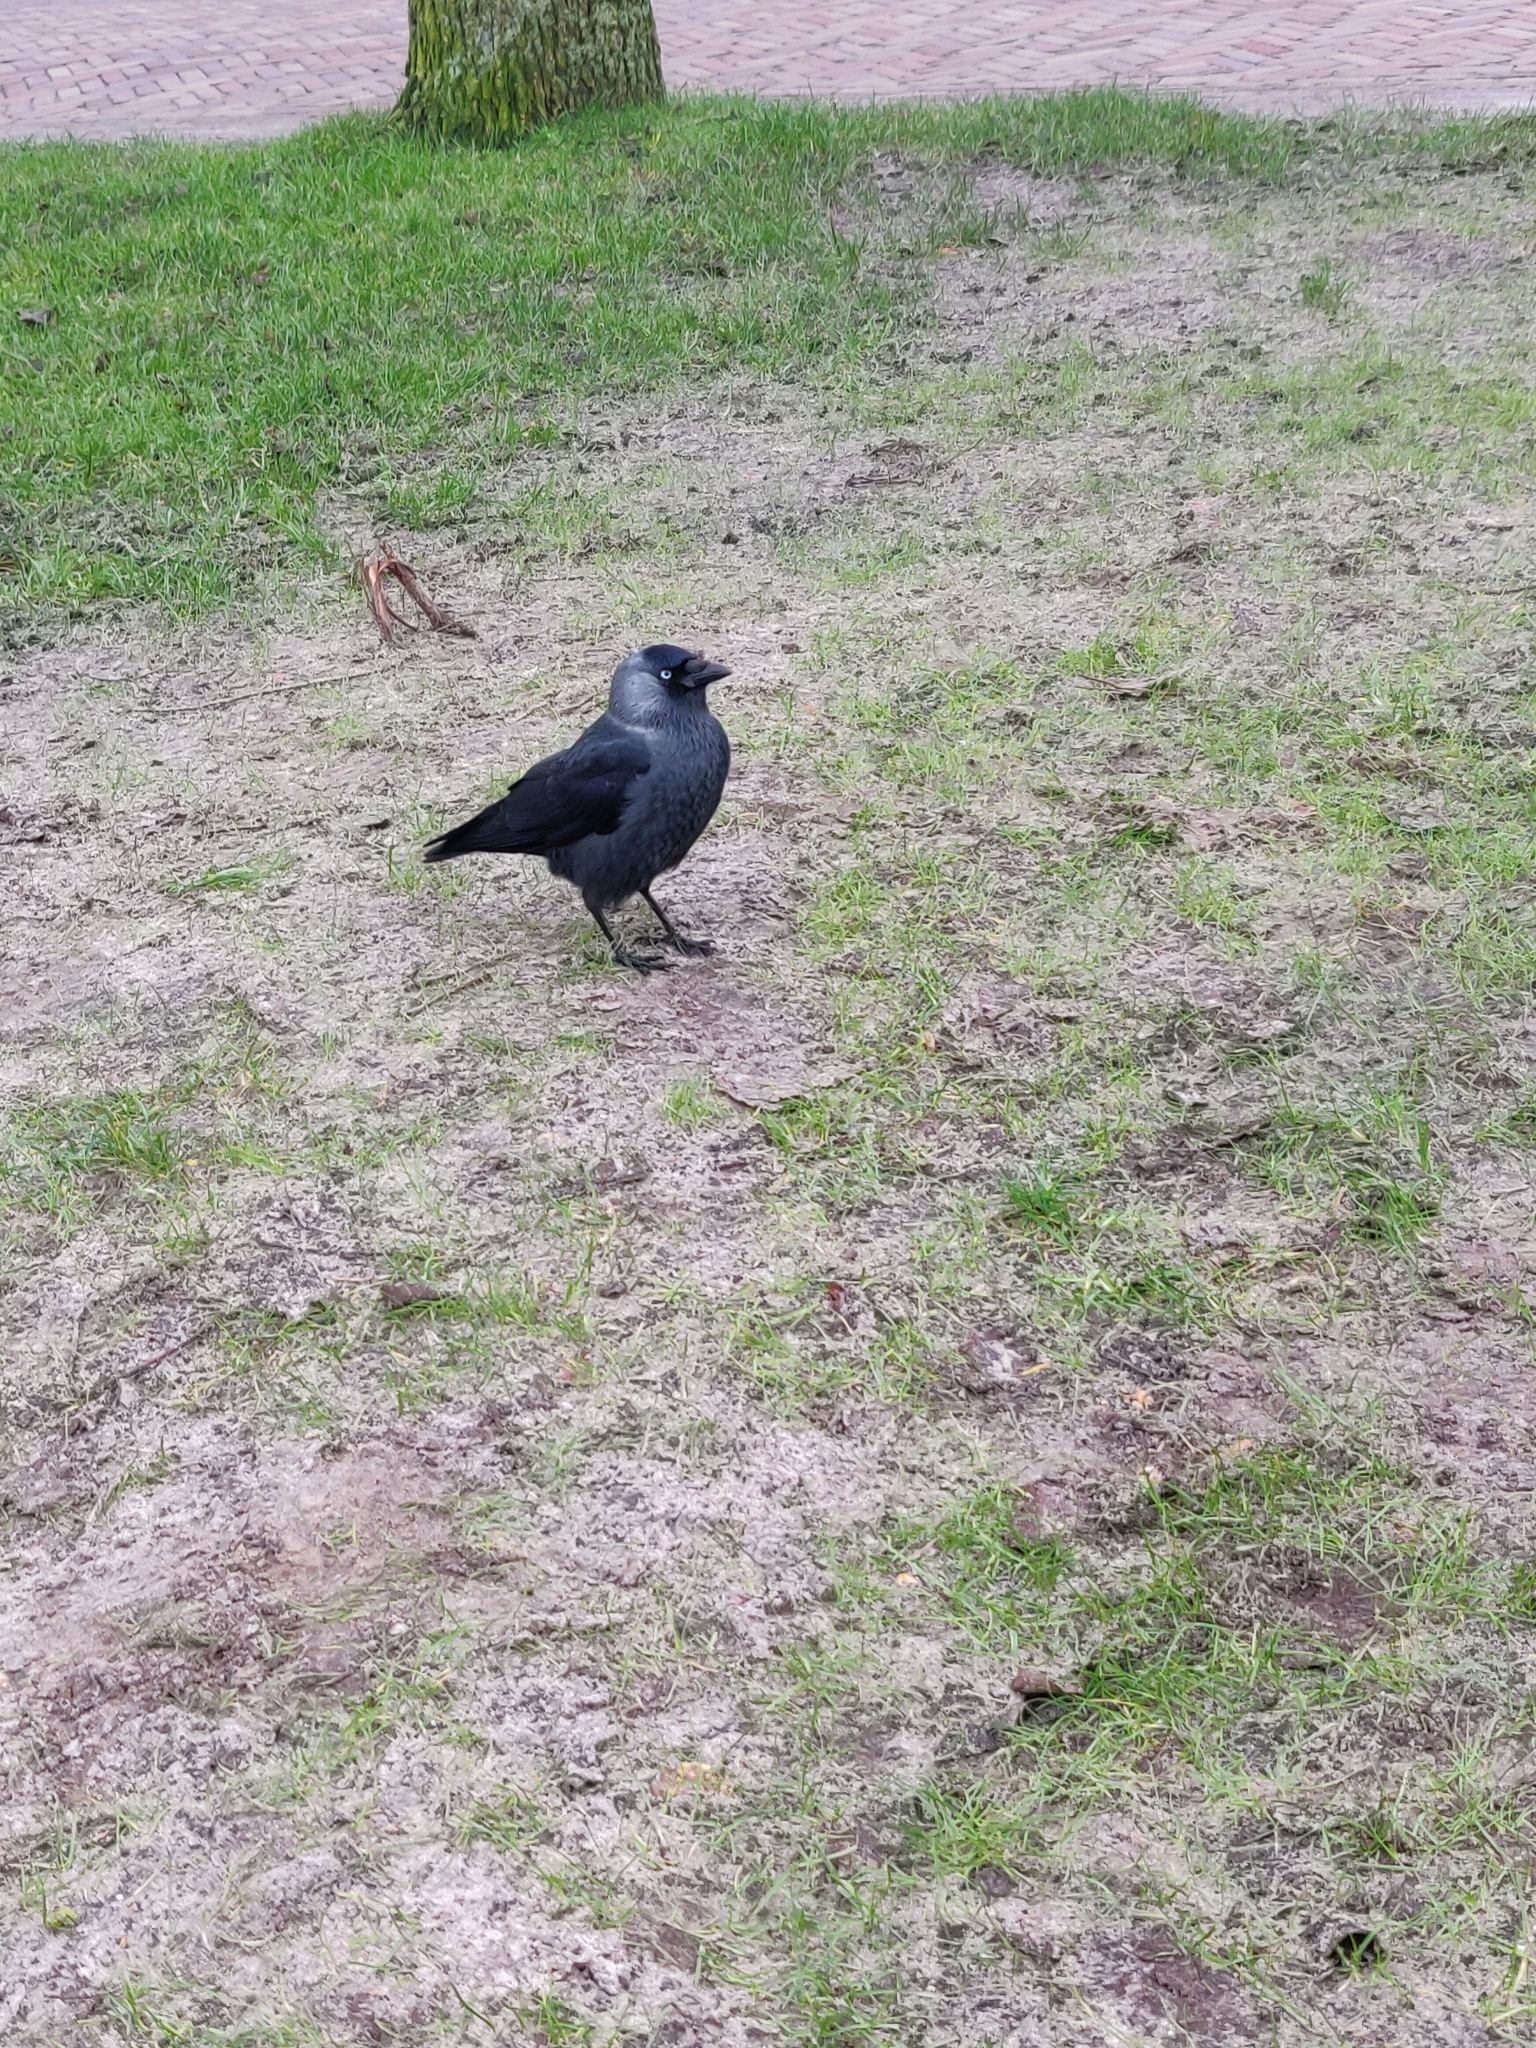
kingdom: Animalia
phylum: Chordata
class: Aves
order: Passeriformes
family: Corvidae
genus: Coloeus
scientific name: Coloeus monedula
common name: Western jackdaw
